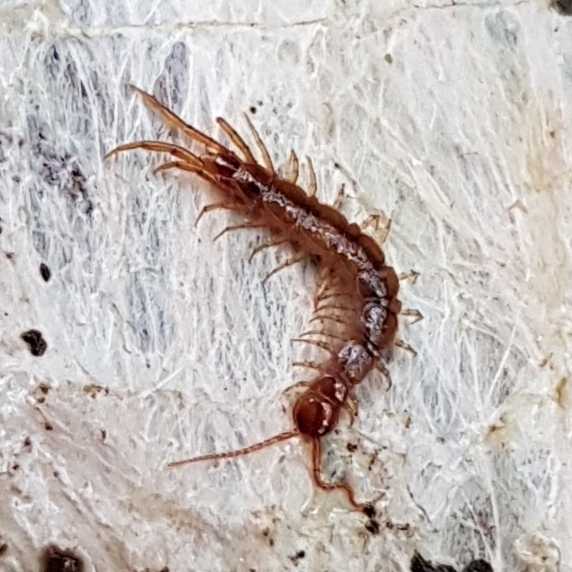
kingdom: Animalia
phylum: Arthropoda
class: Chilopoda
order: Lithobiomorpha
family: Lithobiidae
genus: Lithobius
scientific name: Lithobius forficatus
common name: Centipede
